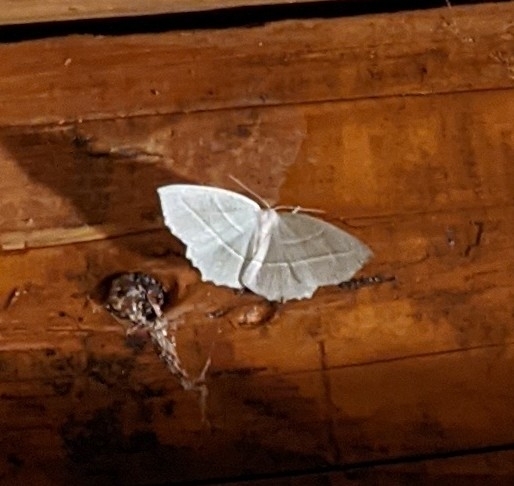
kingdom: Animalia
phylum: Arthropoda
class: Insecta
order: Lepidoptera
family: Geometridae
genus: Campaea
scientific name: Campaea perlata
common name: Fringed looper
